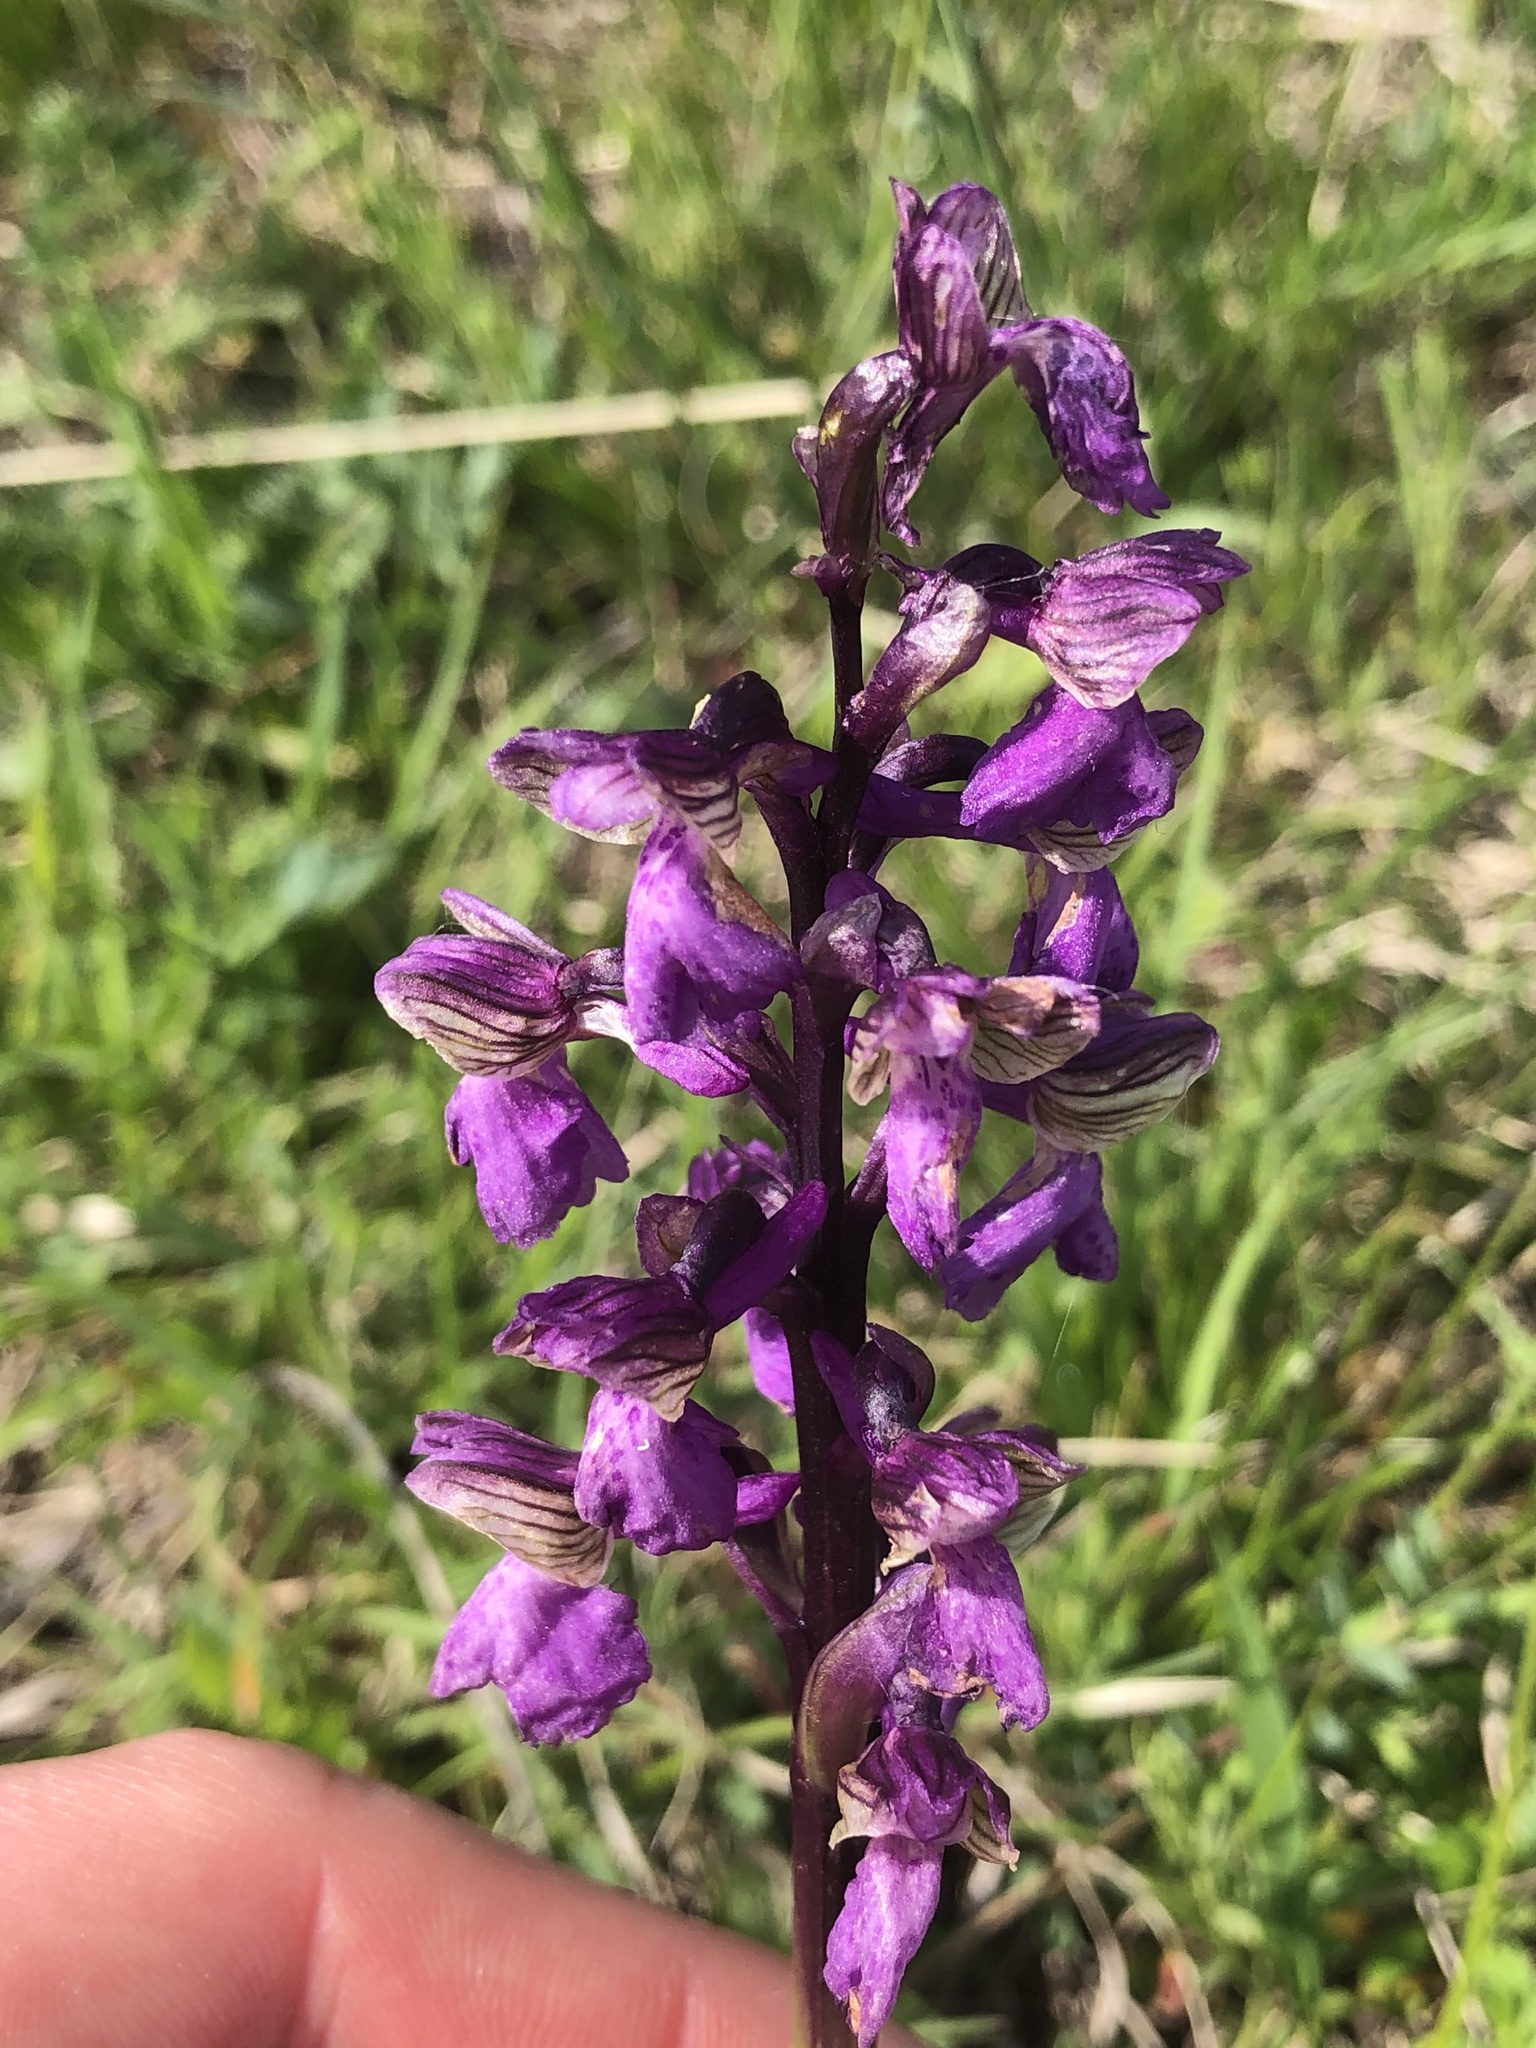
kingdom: Plantae
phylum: Tracheophyta
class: Liliopsida
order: Asparagales
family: Orchidaceae
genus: Anacamptis
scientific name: Anacamptis morio
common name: Green-winged orchid
